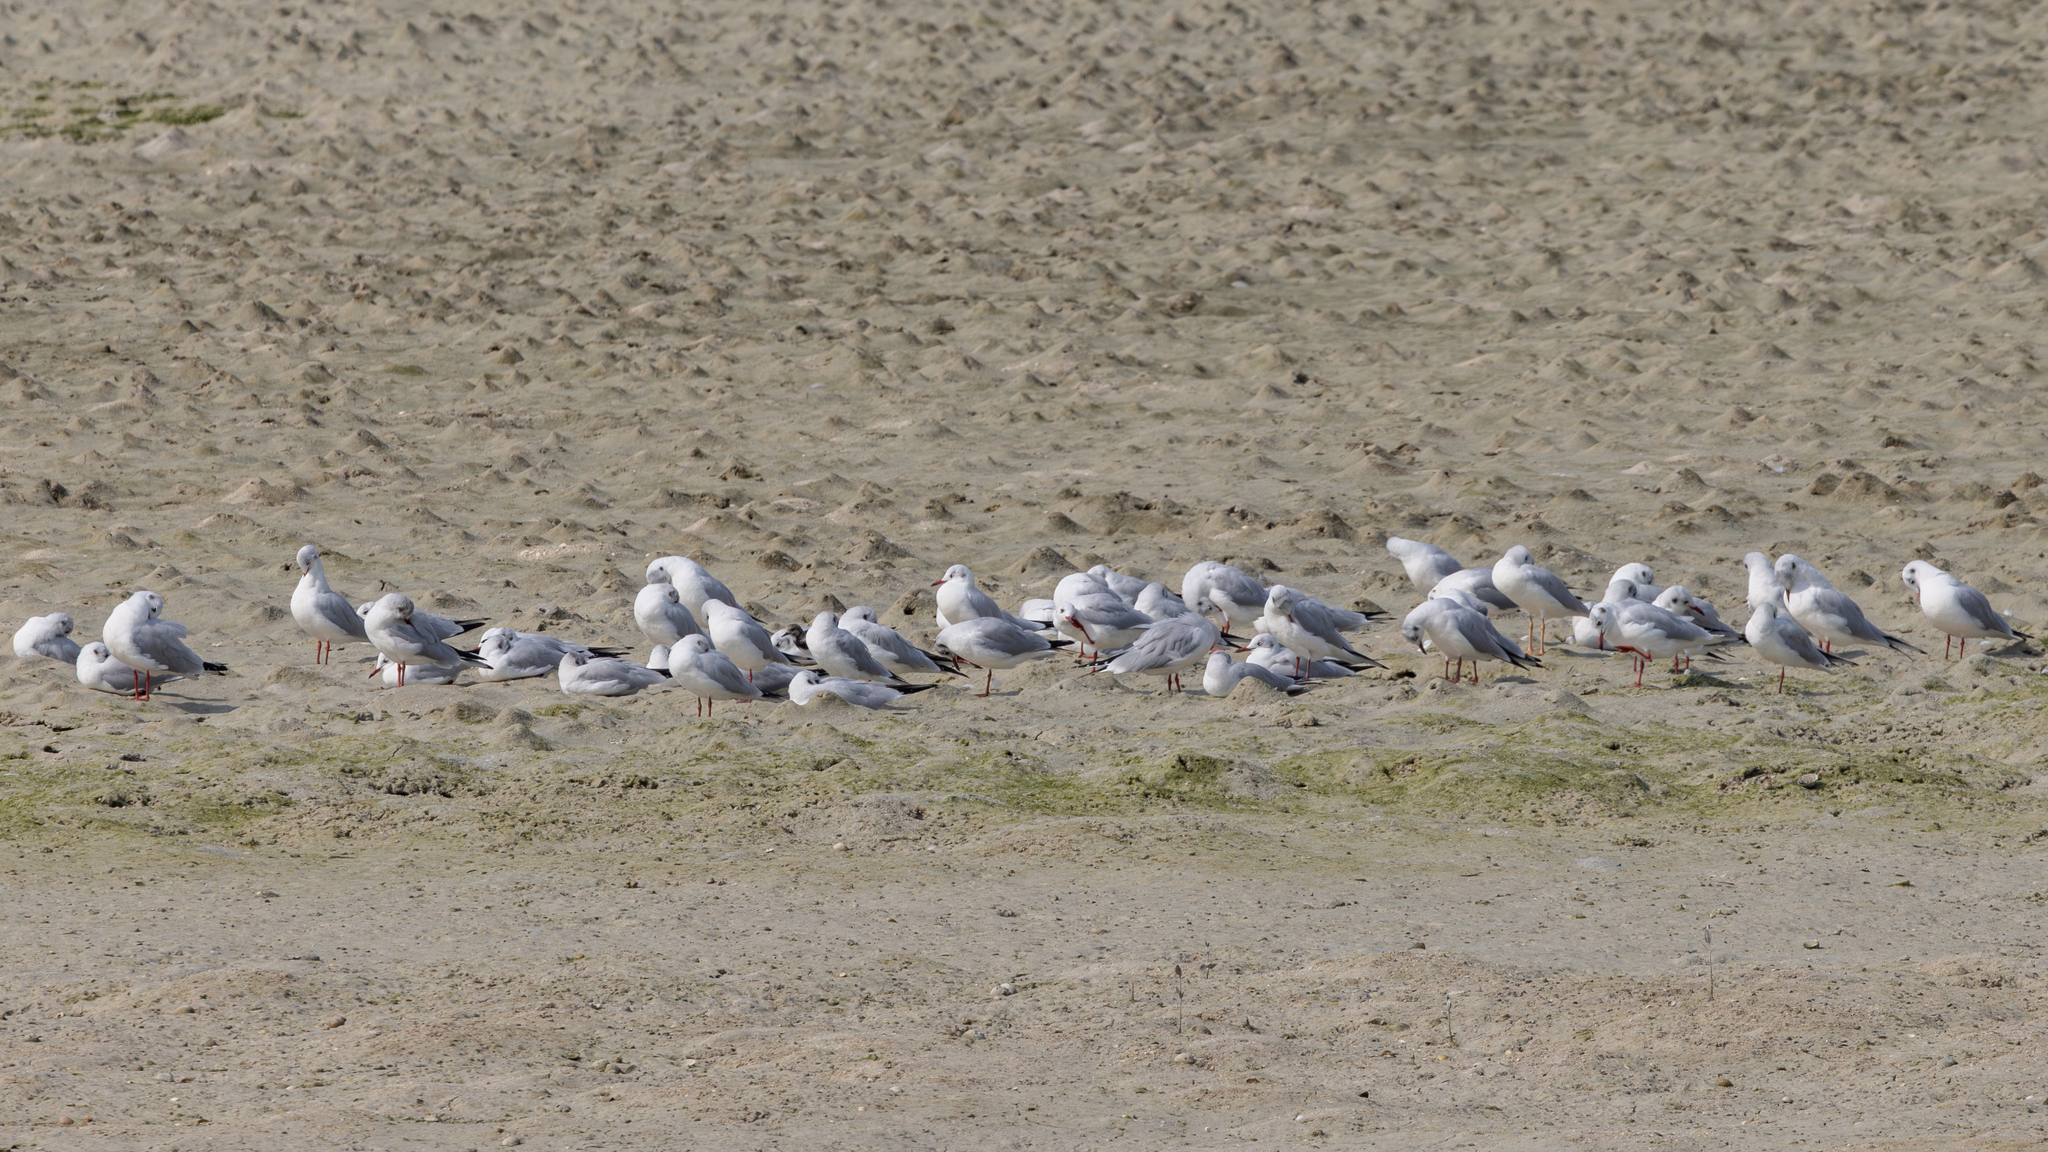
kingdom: Animalia
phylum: Chordata
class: Aves
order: Charadriiformes
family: Laridae
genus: Chroicocephalus
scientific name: Chroicocephalus ridibundus
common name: Black-headed gull
